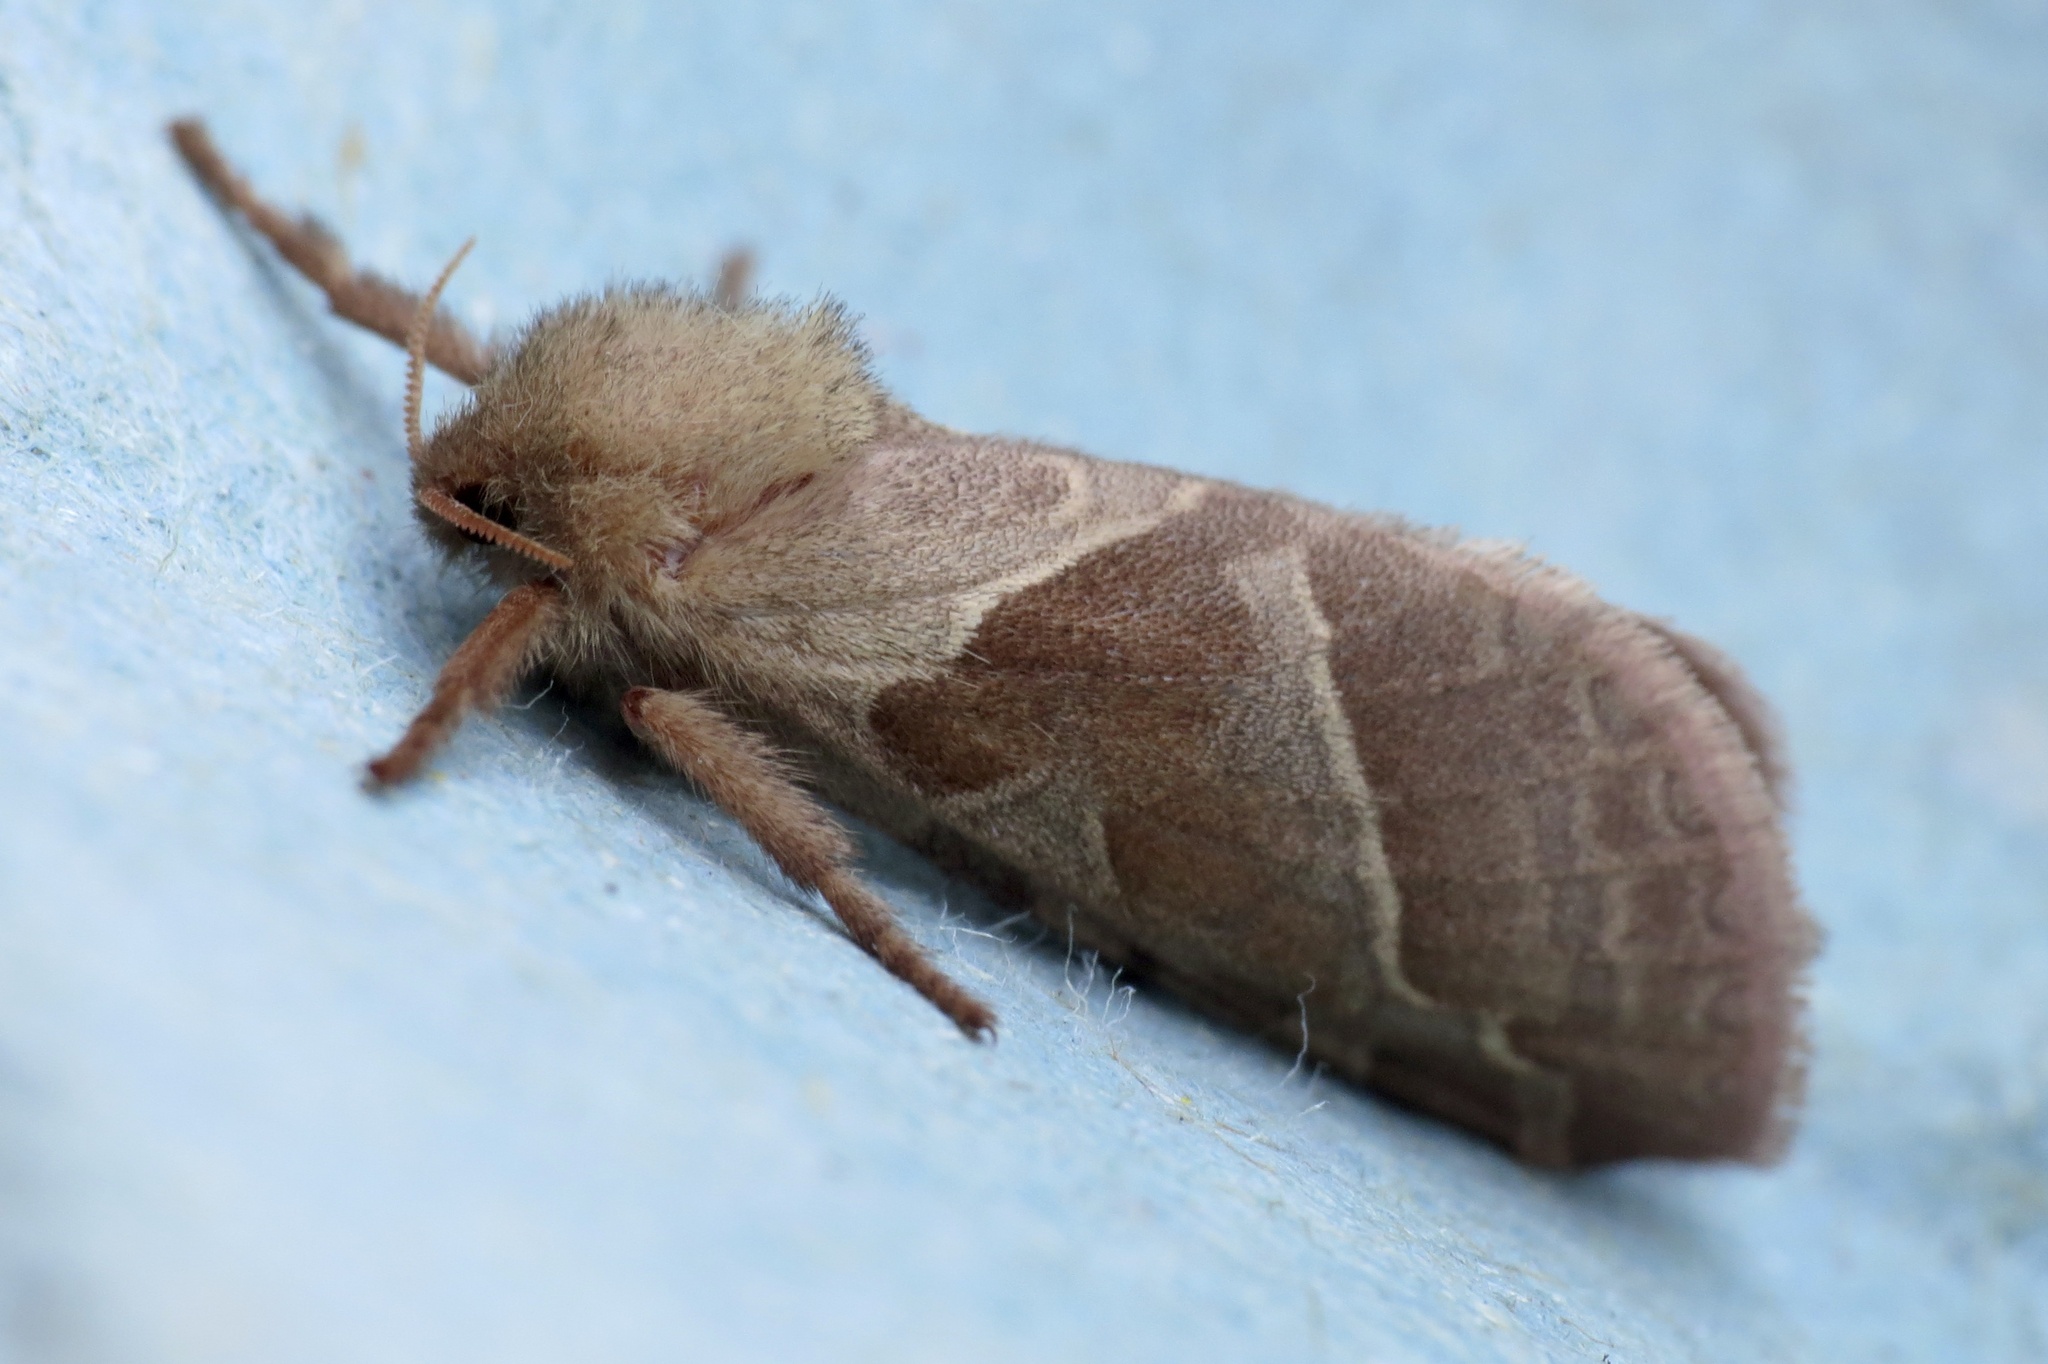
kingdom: Animalia
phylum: Arthropoda
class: Insecta
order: Lepidoptera
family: Hepialidae
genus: Triodia
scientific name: Triodia sylvina
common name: Orange swift
